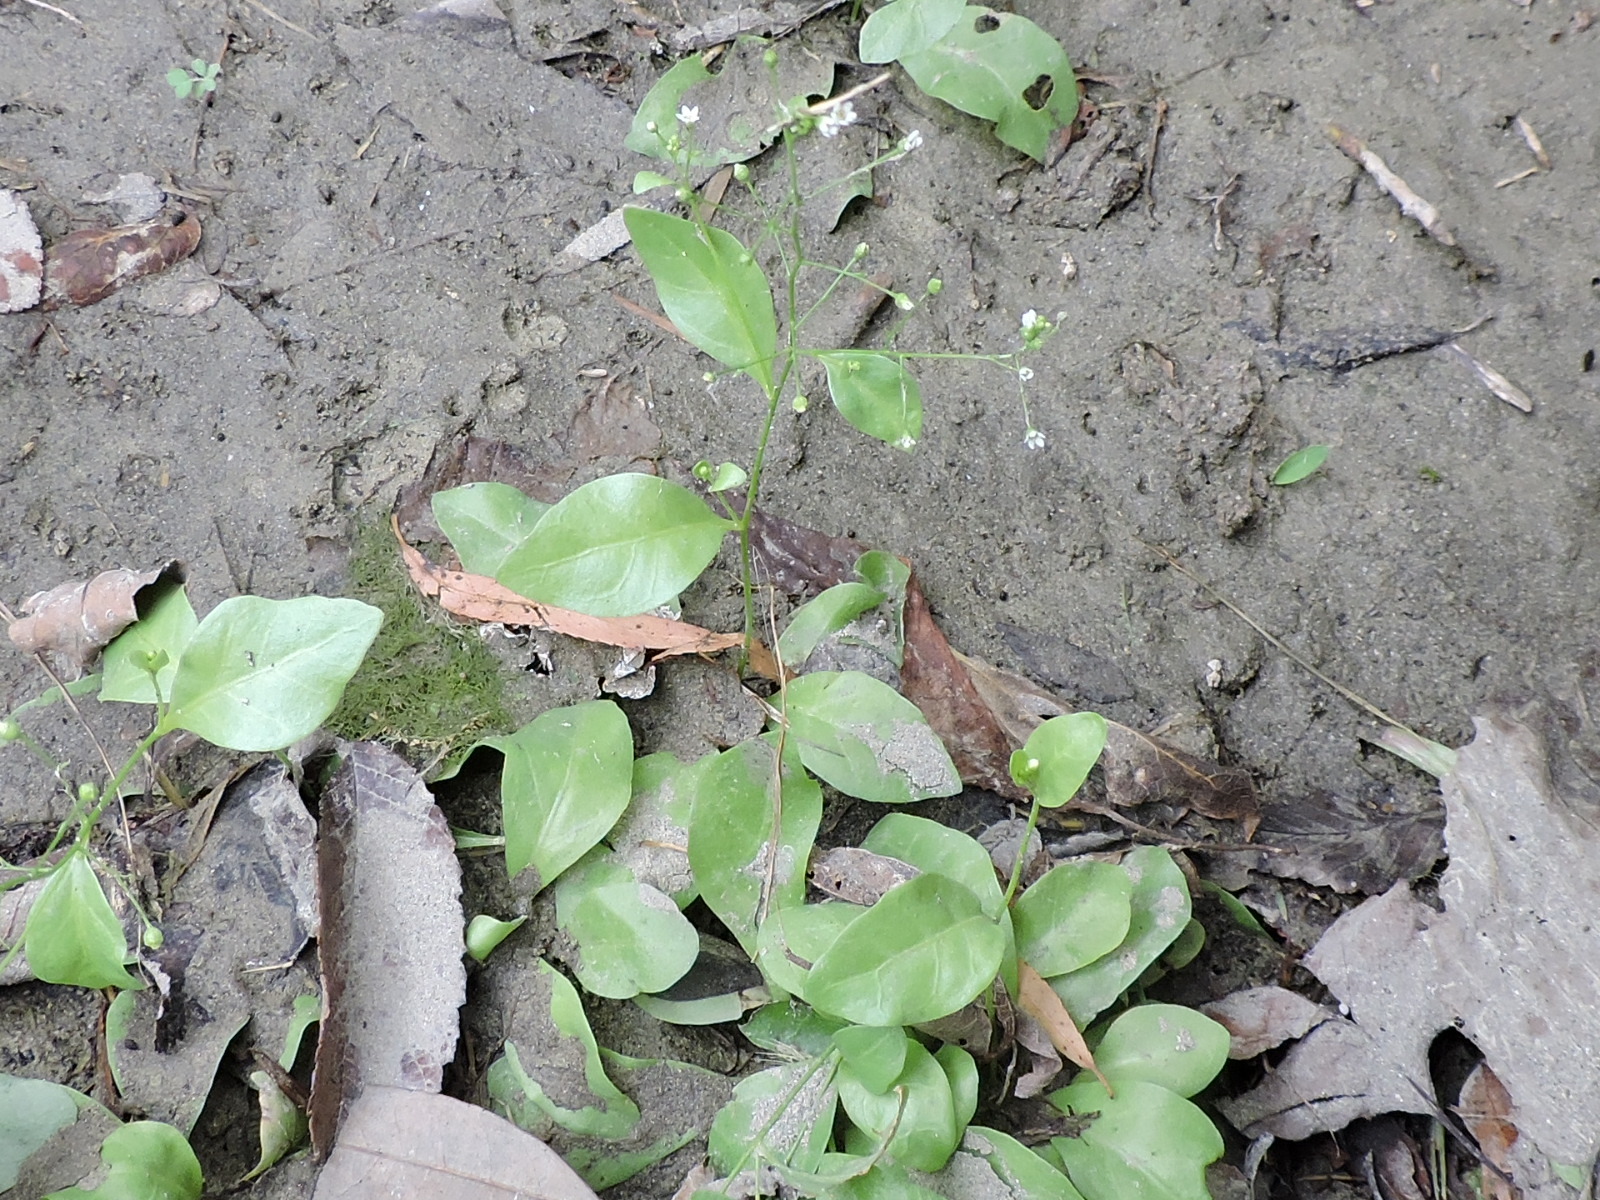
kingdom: Plantae
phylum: Tracheophyta
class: Magnoliopsida
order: Ericales
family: Primulaceae
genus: Samolus
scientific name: Samolus parviflorus
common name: False water pimpernel
